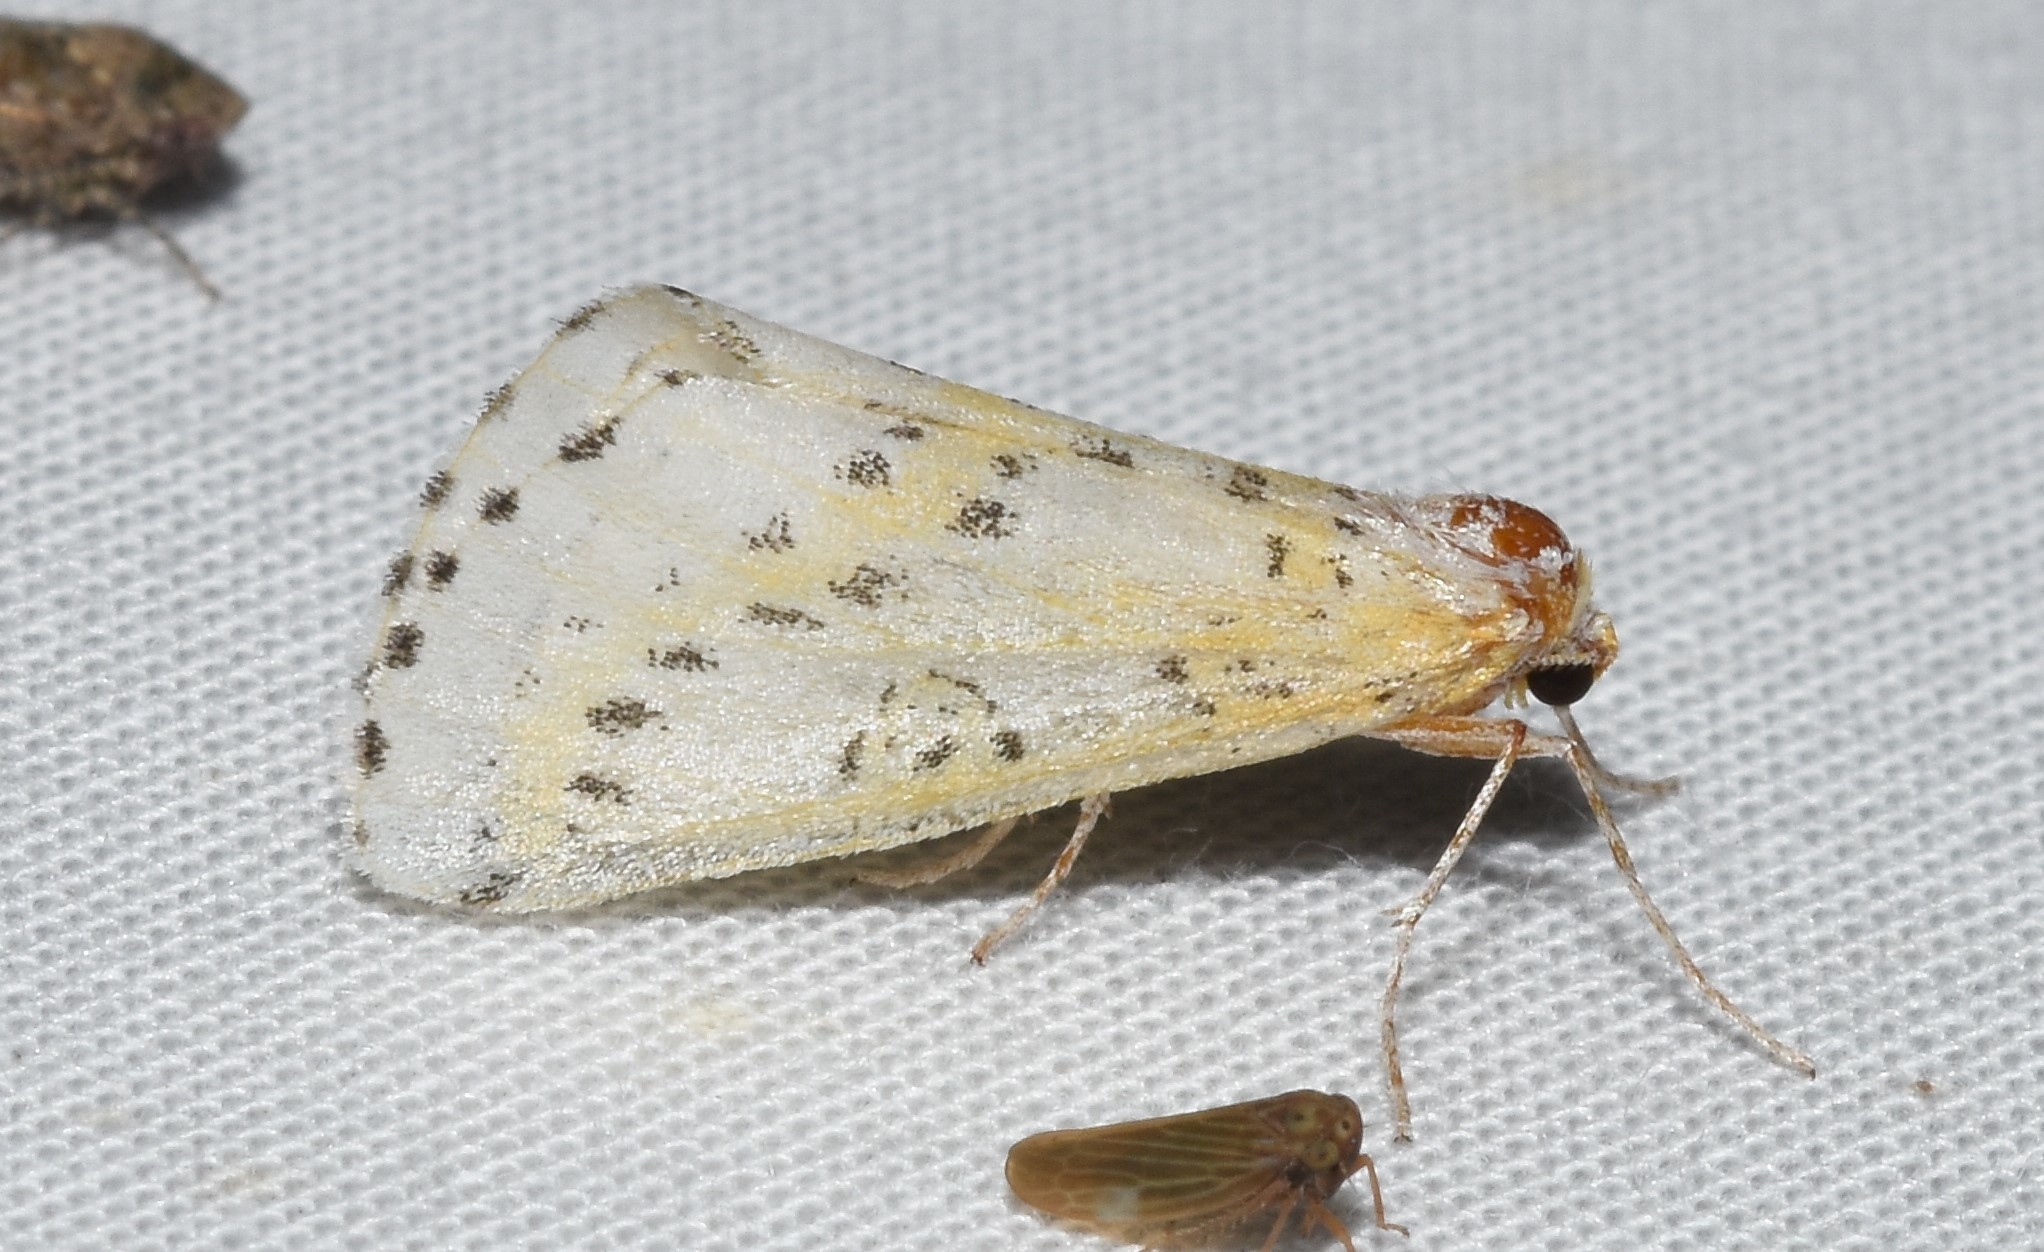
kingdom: Animalia
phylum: Arthropoda
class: Insecta
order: Lepidoptera
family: Geometridae
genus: Philtraea
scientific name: Philtraea monillata
